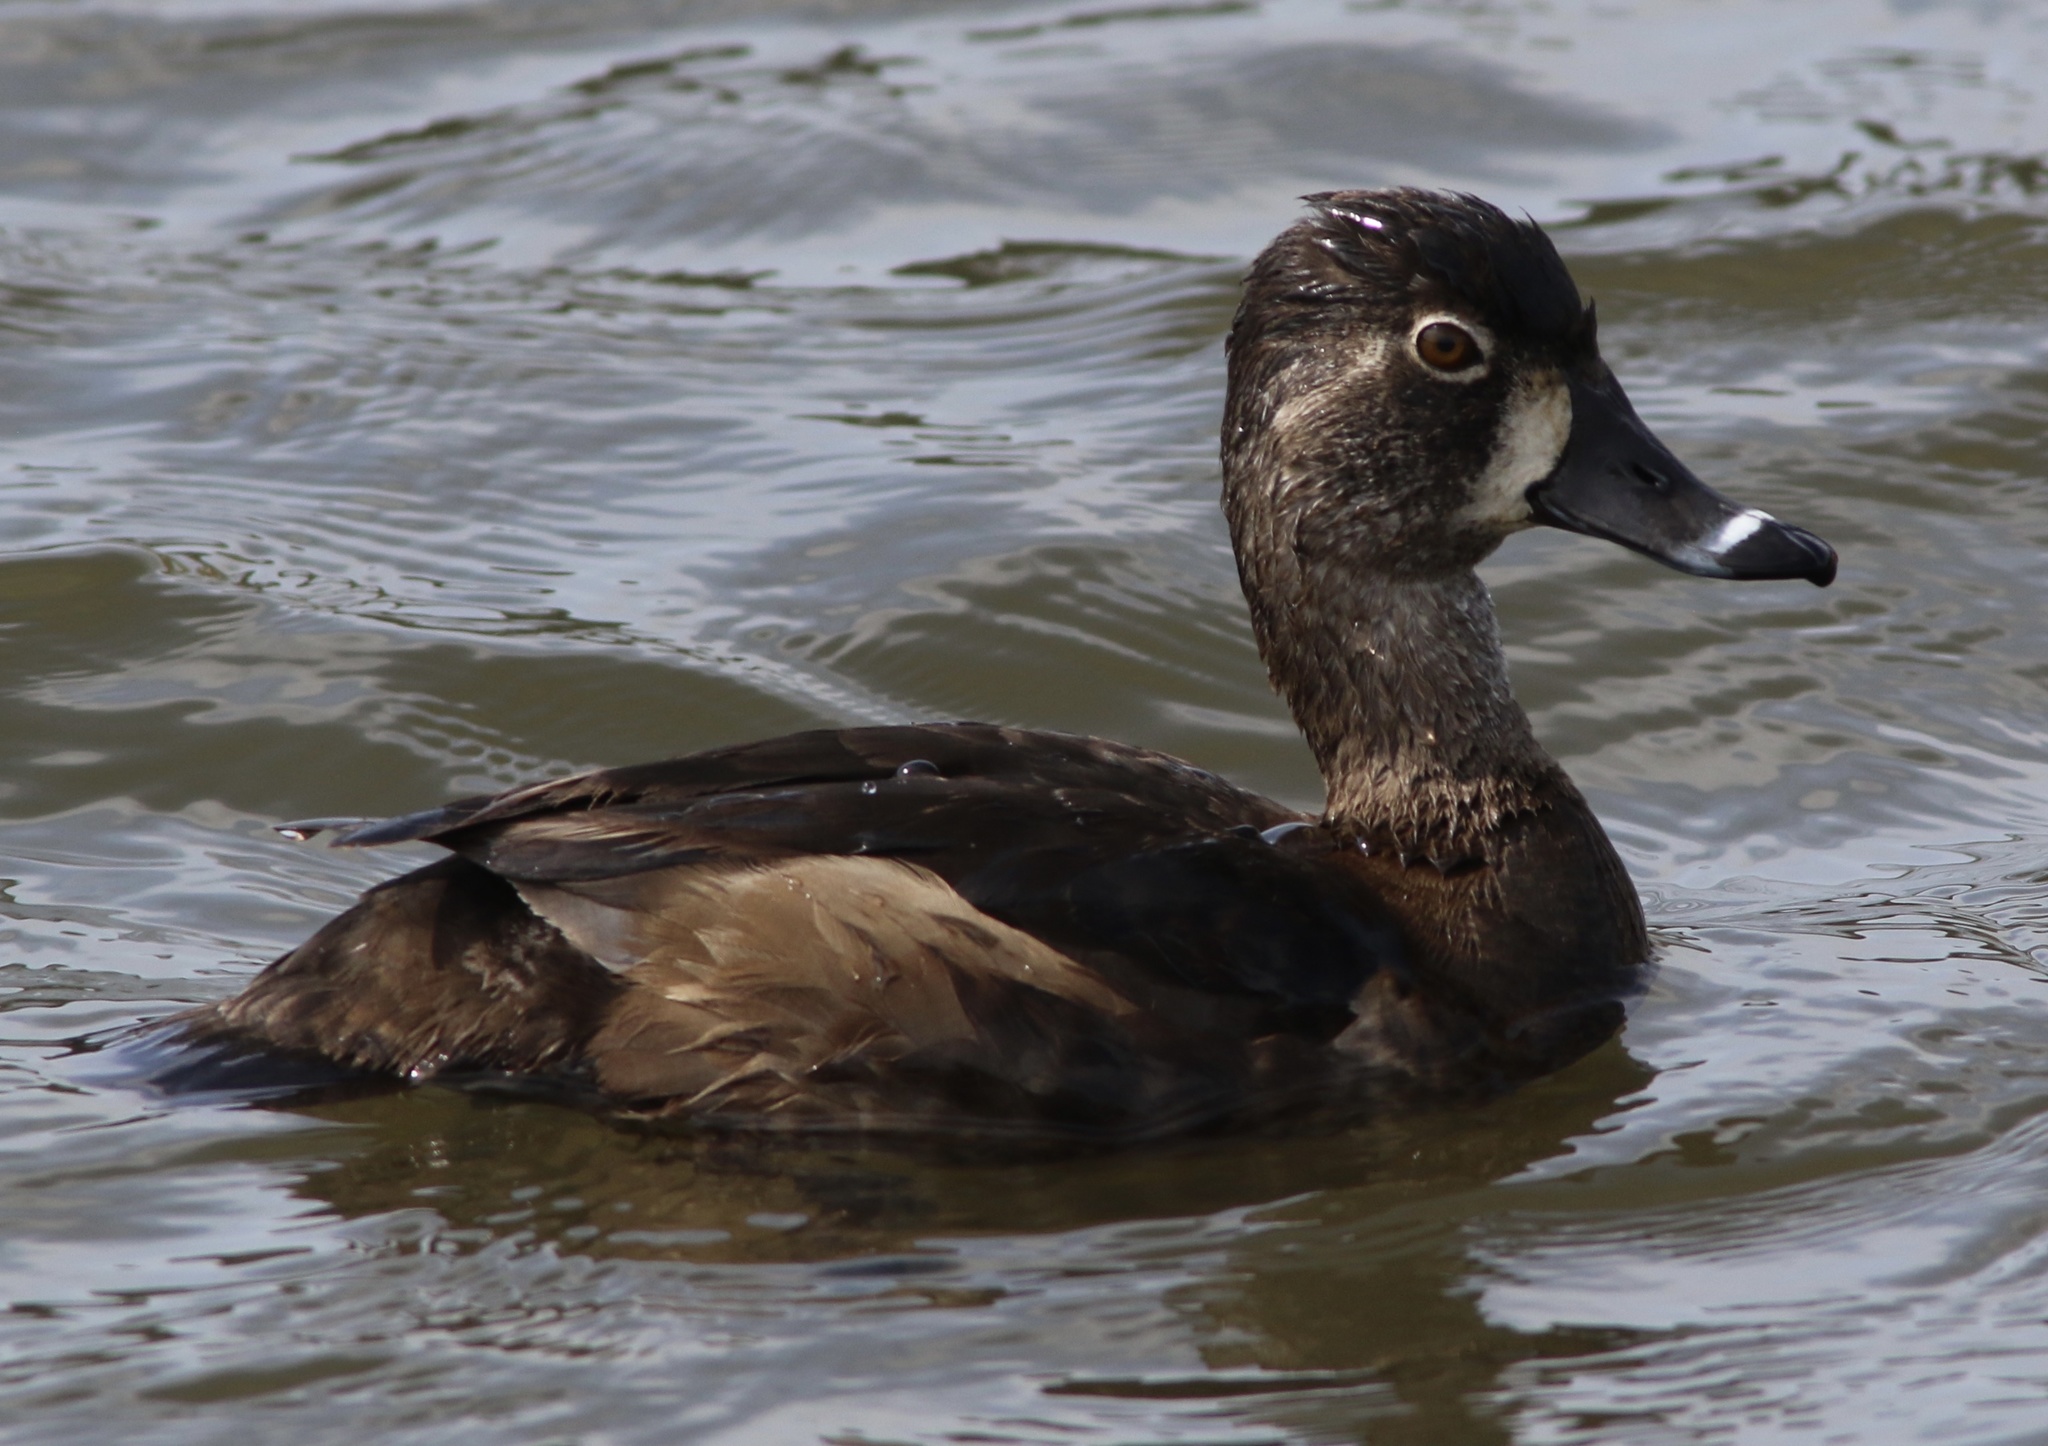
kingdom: Animalia
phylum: Chordata
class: Aves
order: Anseriformes
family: Anatidae
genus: Aythya
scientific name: Aythya collaris
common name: Ring-necked duck
